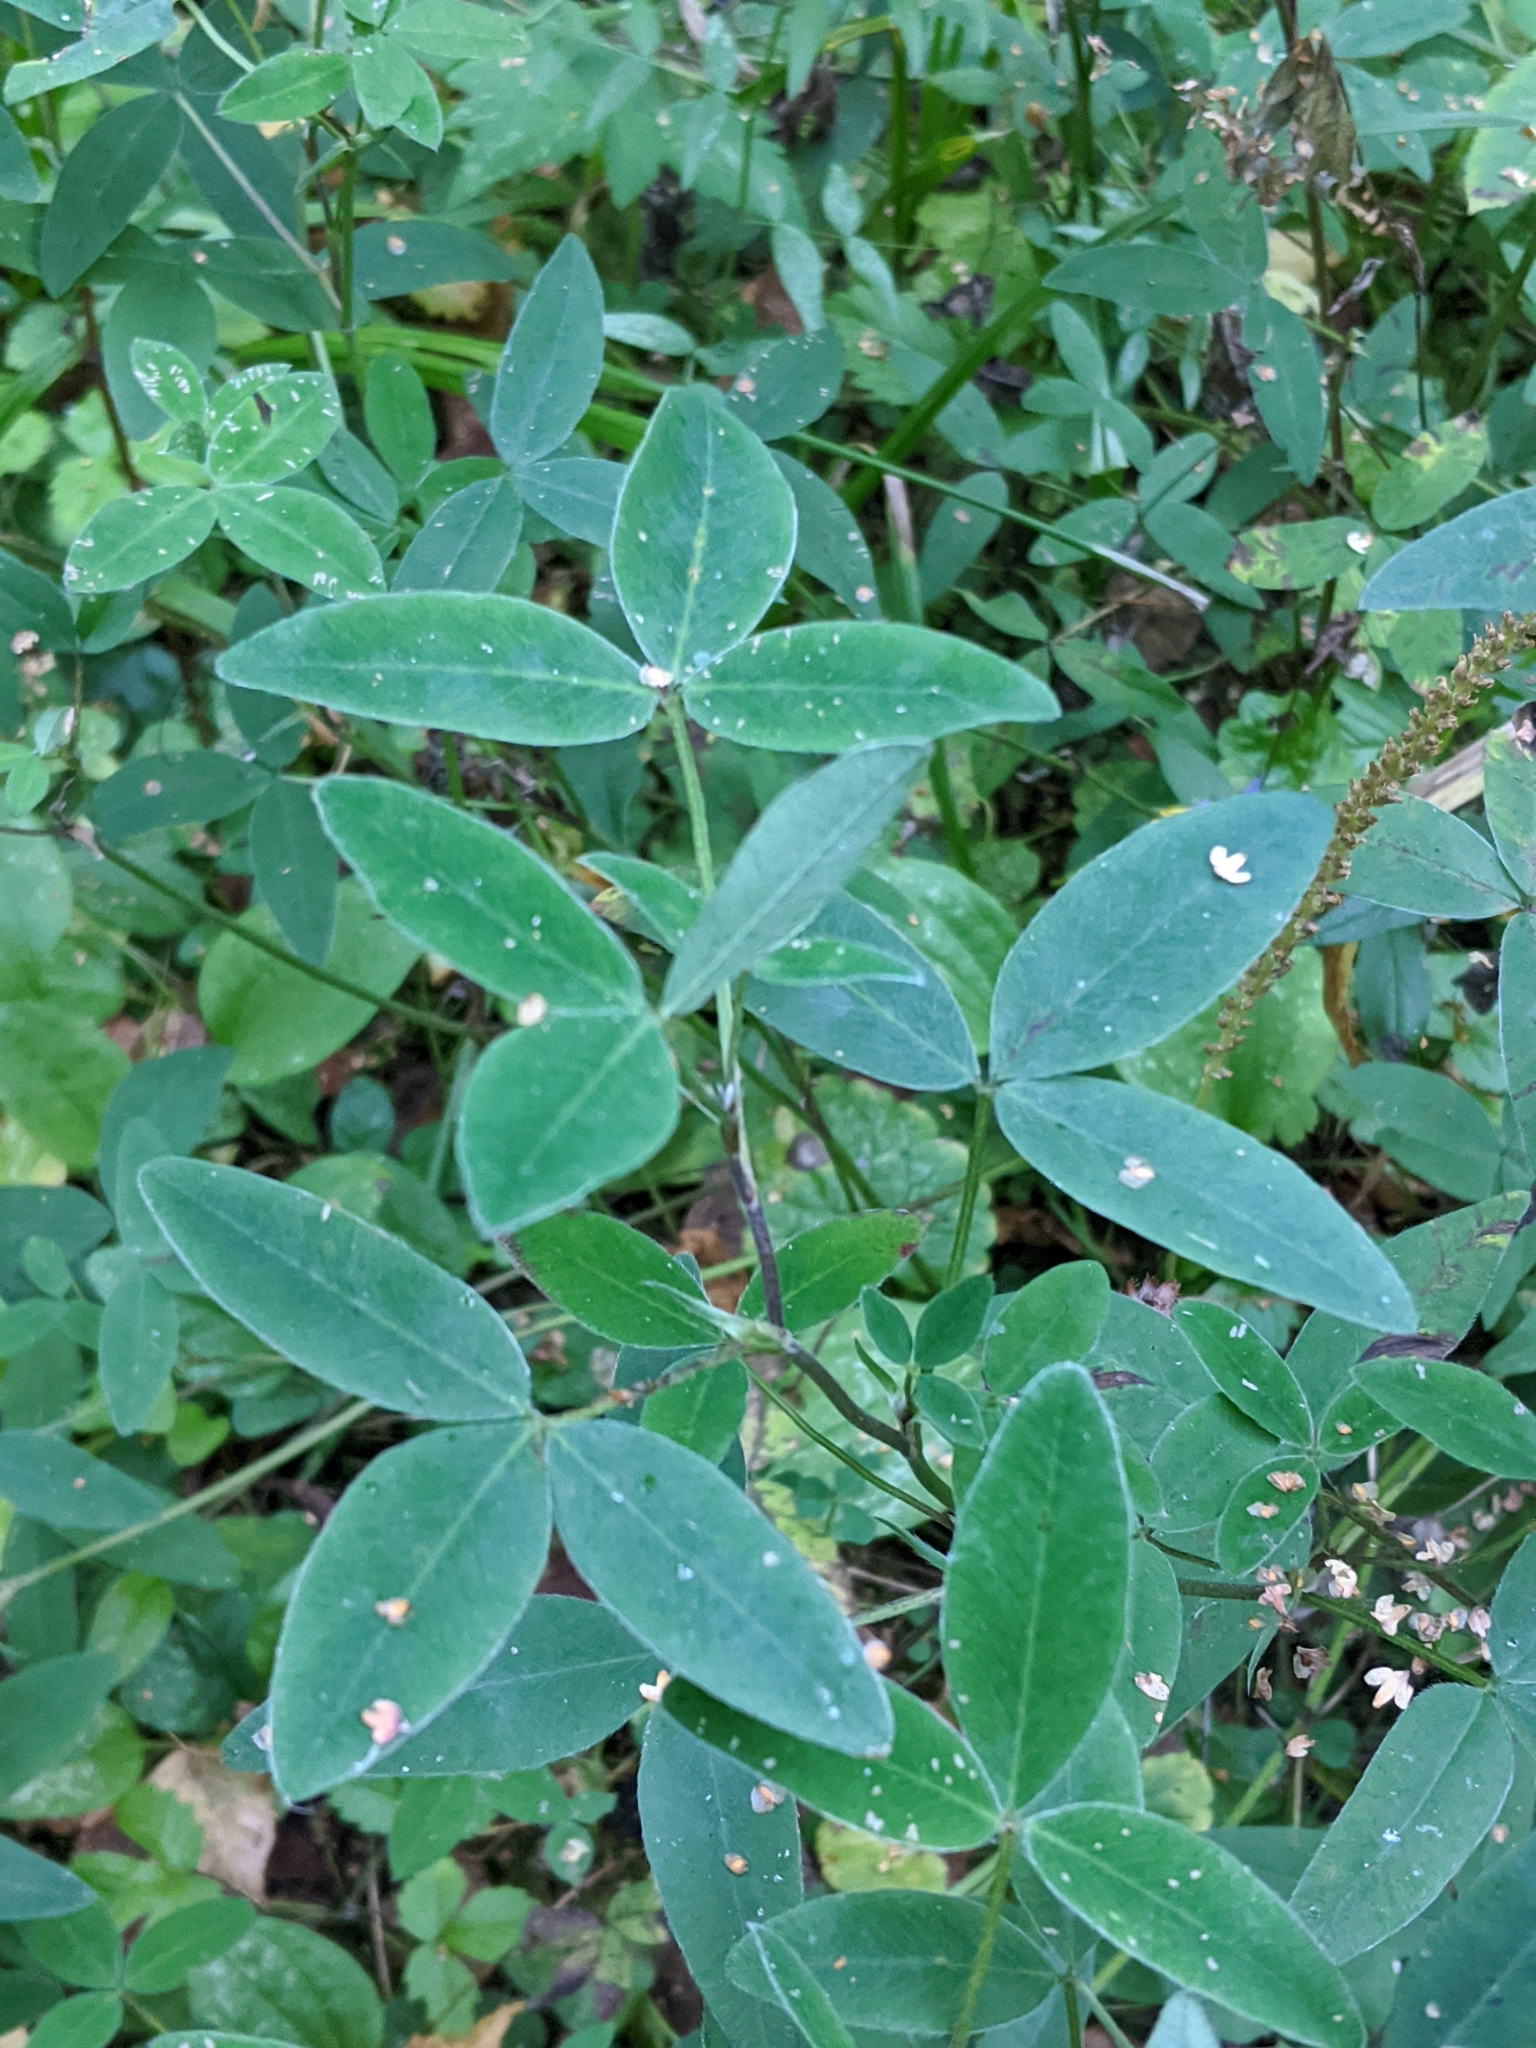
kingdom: Plantae
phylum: Tracheophyta
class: Magnoliopsida
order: Fabales
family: Fabaceae
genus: Trifolium
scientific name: Trifolium medium
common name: Zigzag clover
